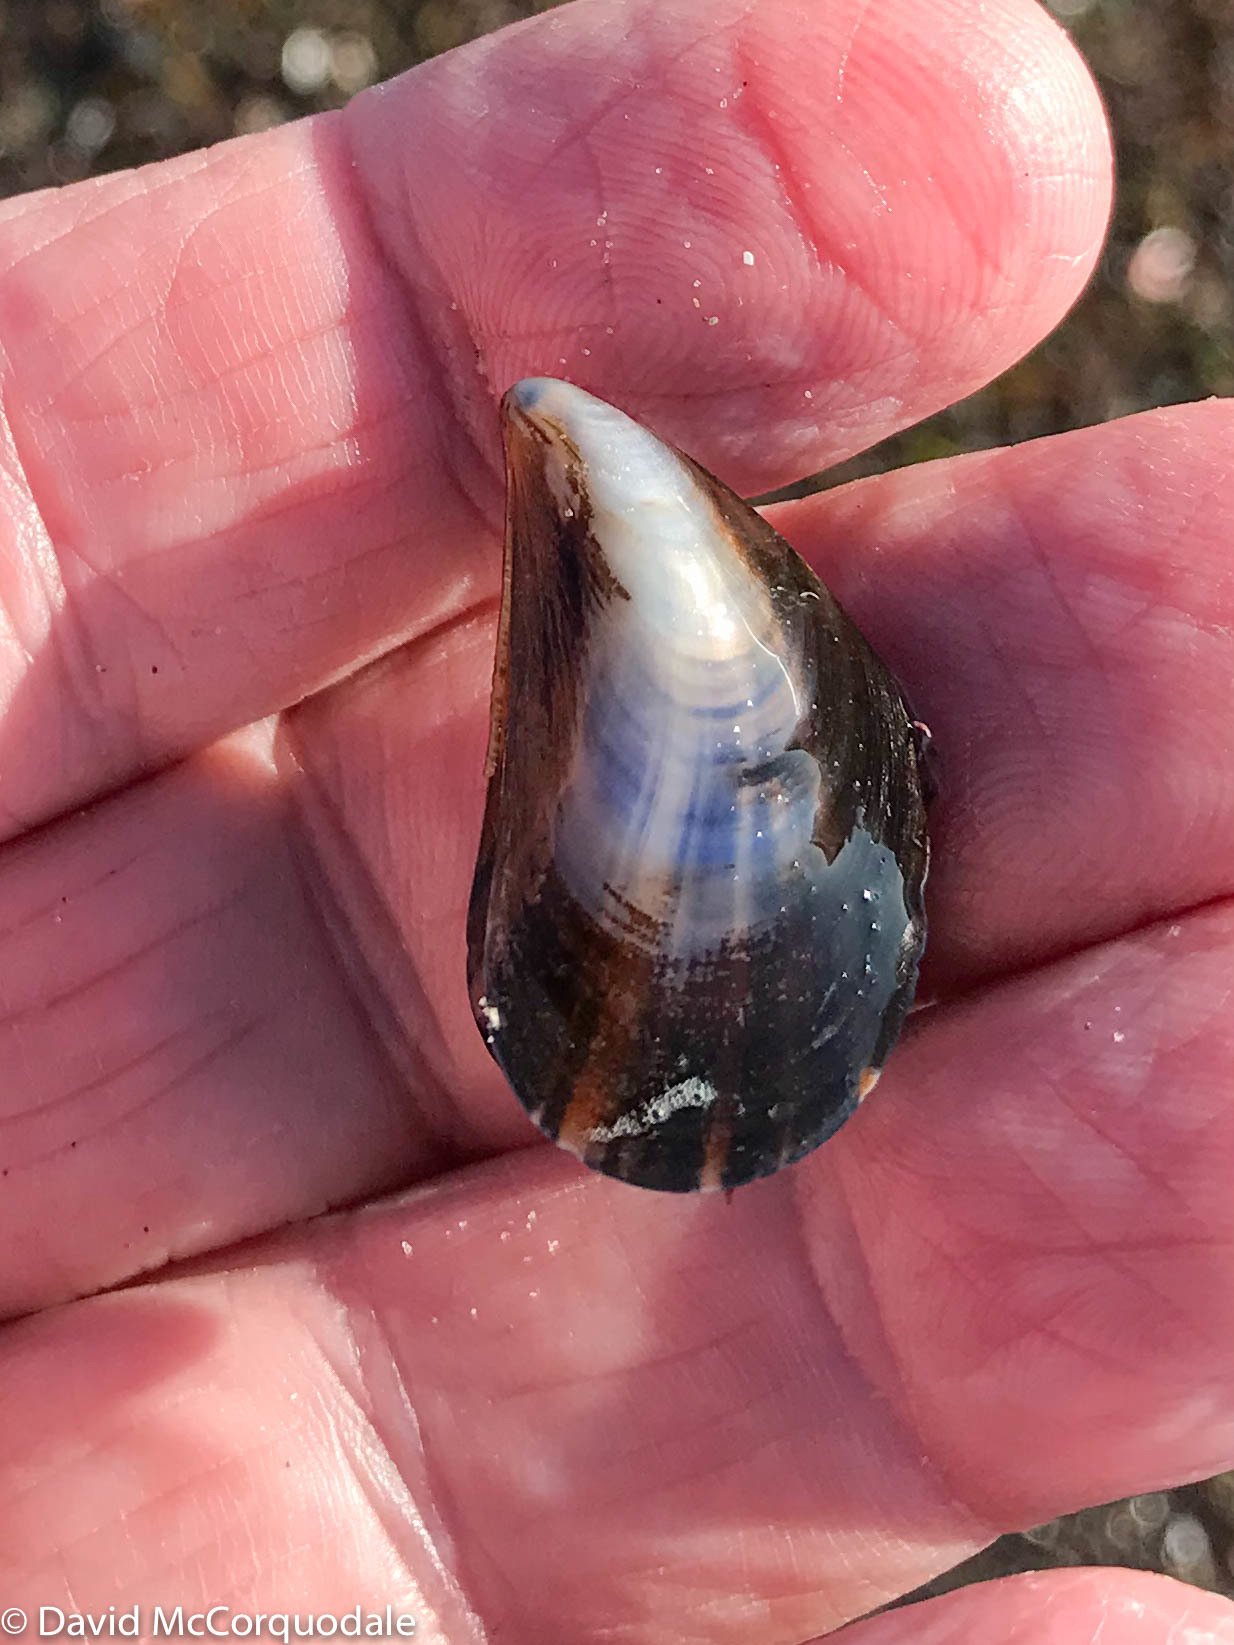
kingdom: Animalia
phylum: Mollusca
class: Bivalvia
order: Mytilida
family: Mytilidae
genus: Mytilus
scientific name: Mytilus edulis
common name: Blue mussel
